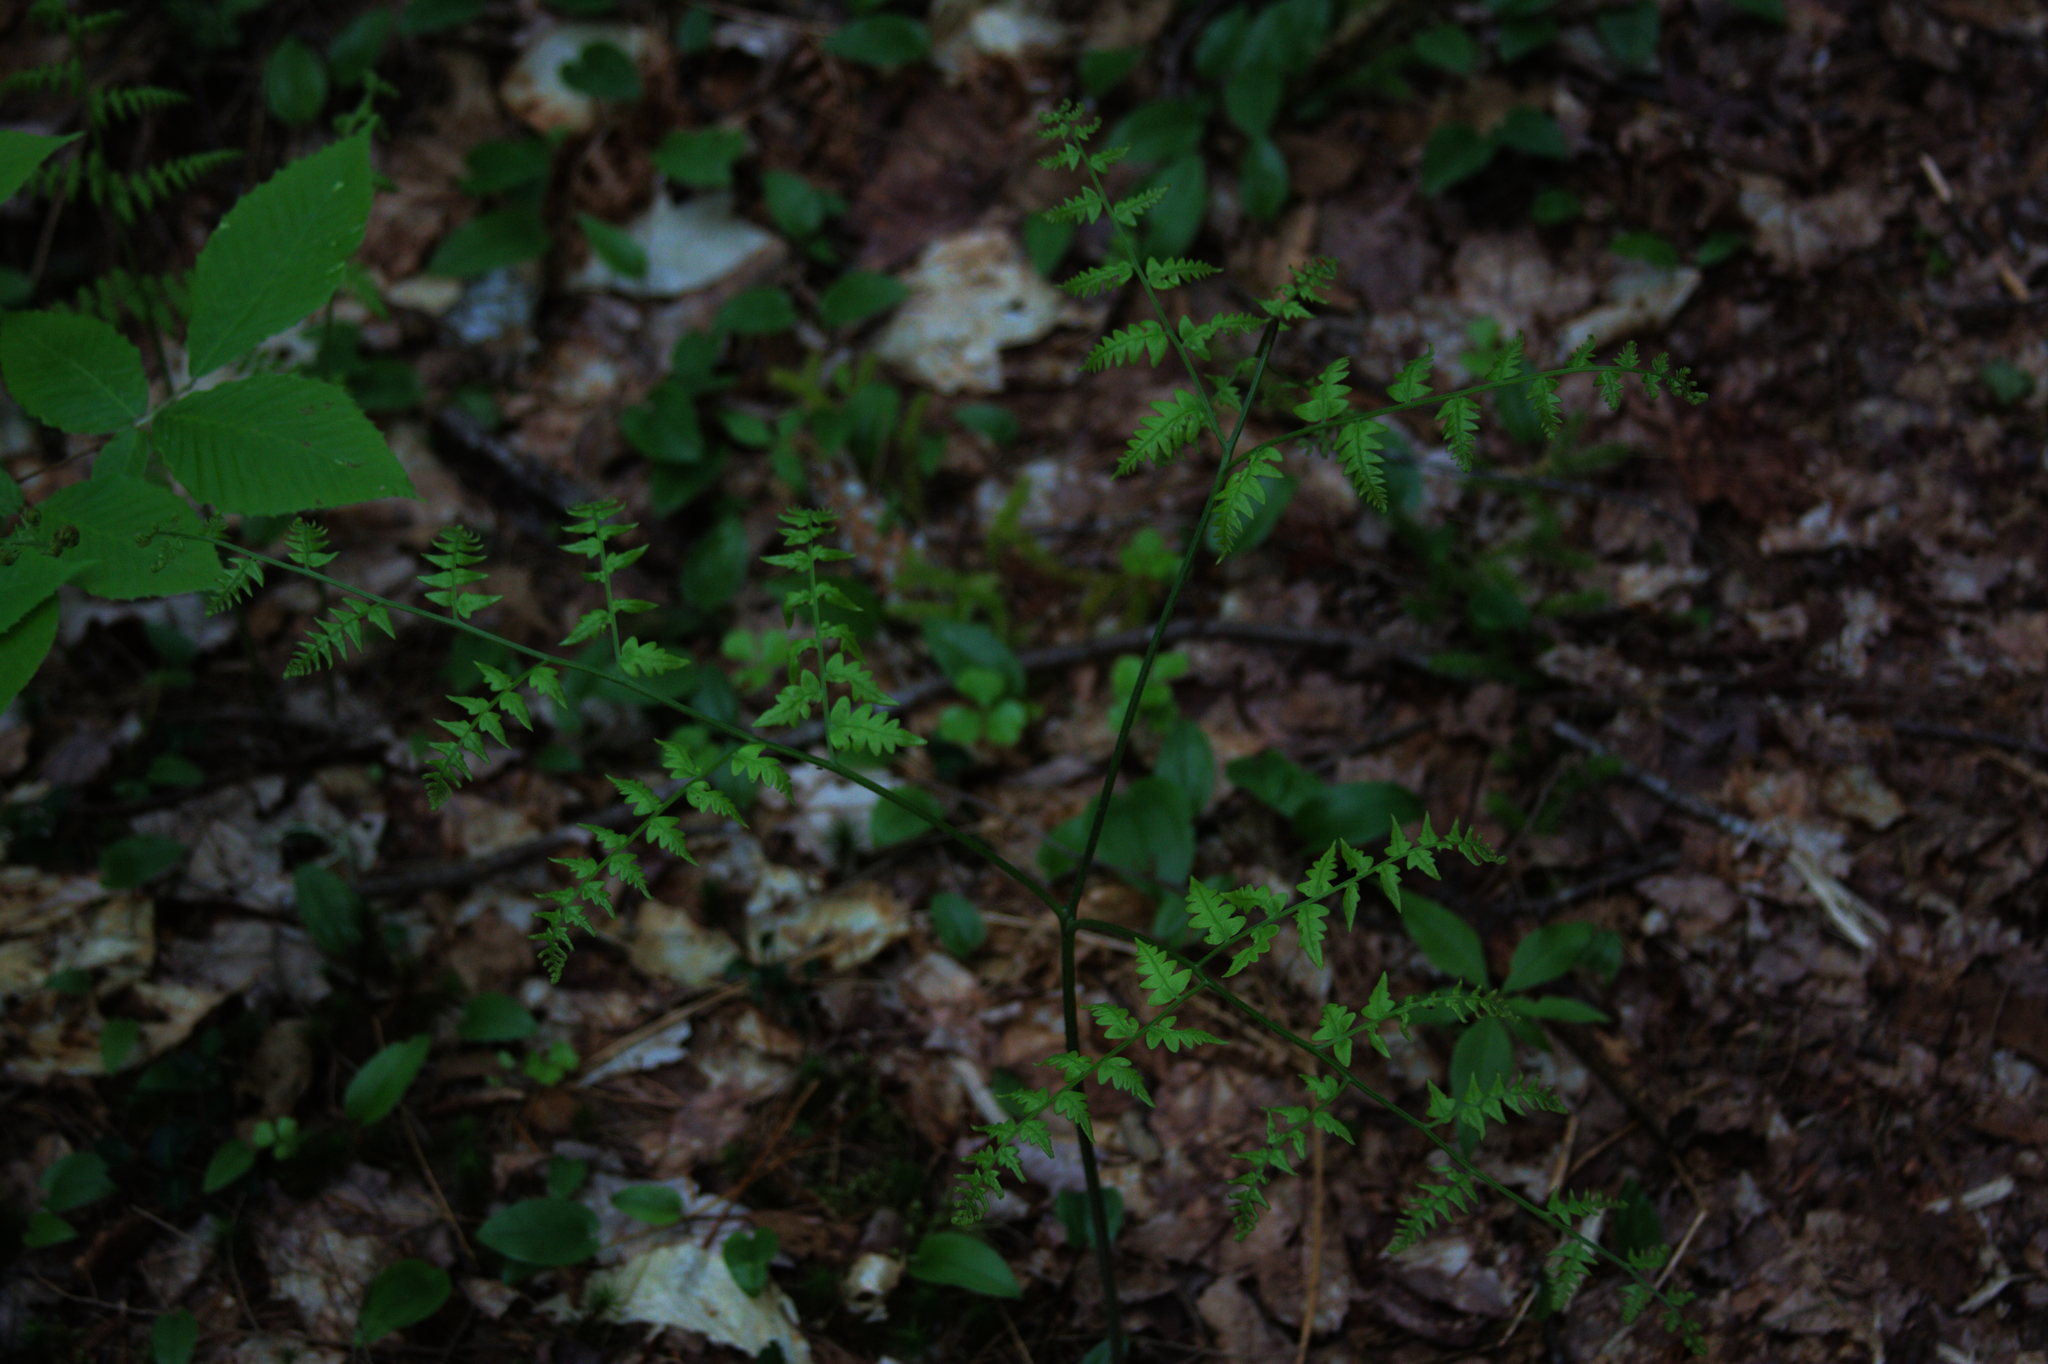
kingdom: Plantae
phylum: Tracheophyta
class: Polypodiopsida
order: Polypodiales
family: Dennstaedtiaceae
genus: Pteridium
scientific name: Pteridium aquilinum
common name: Bracken
